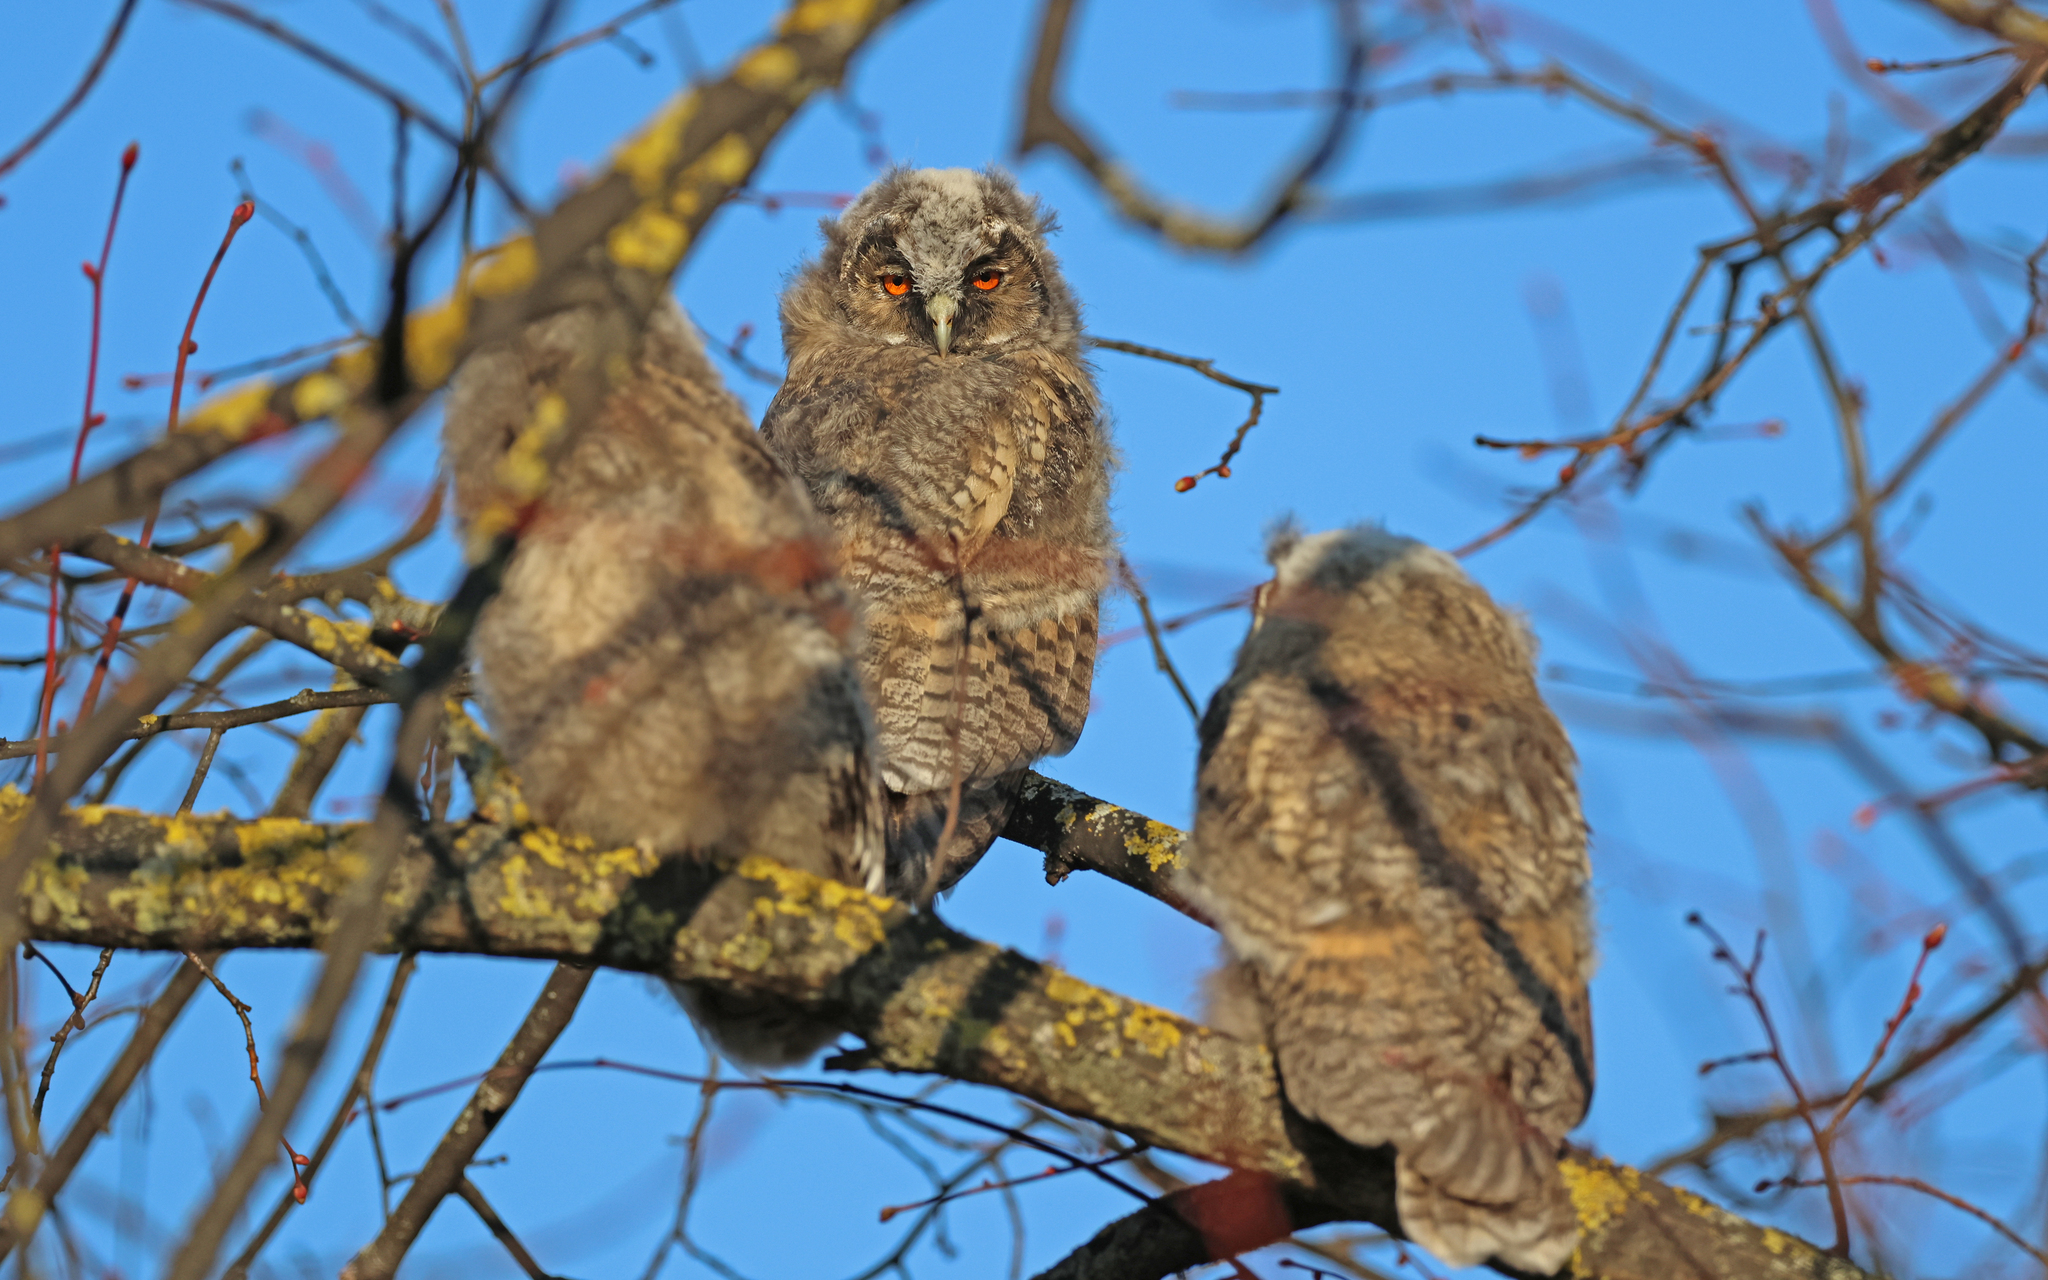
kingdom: Animalia
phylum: Chordata
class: Aves
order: Strigiformes
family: Strigidae
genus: Asio
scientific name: Asio otus
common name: Long-eared owl
